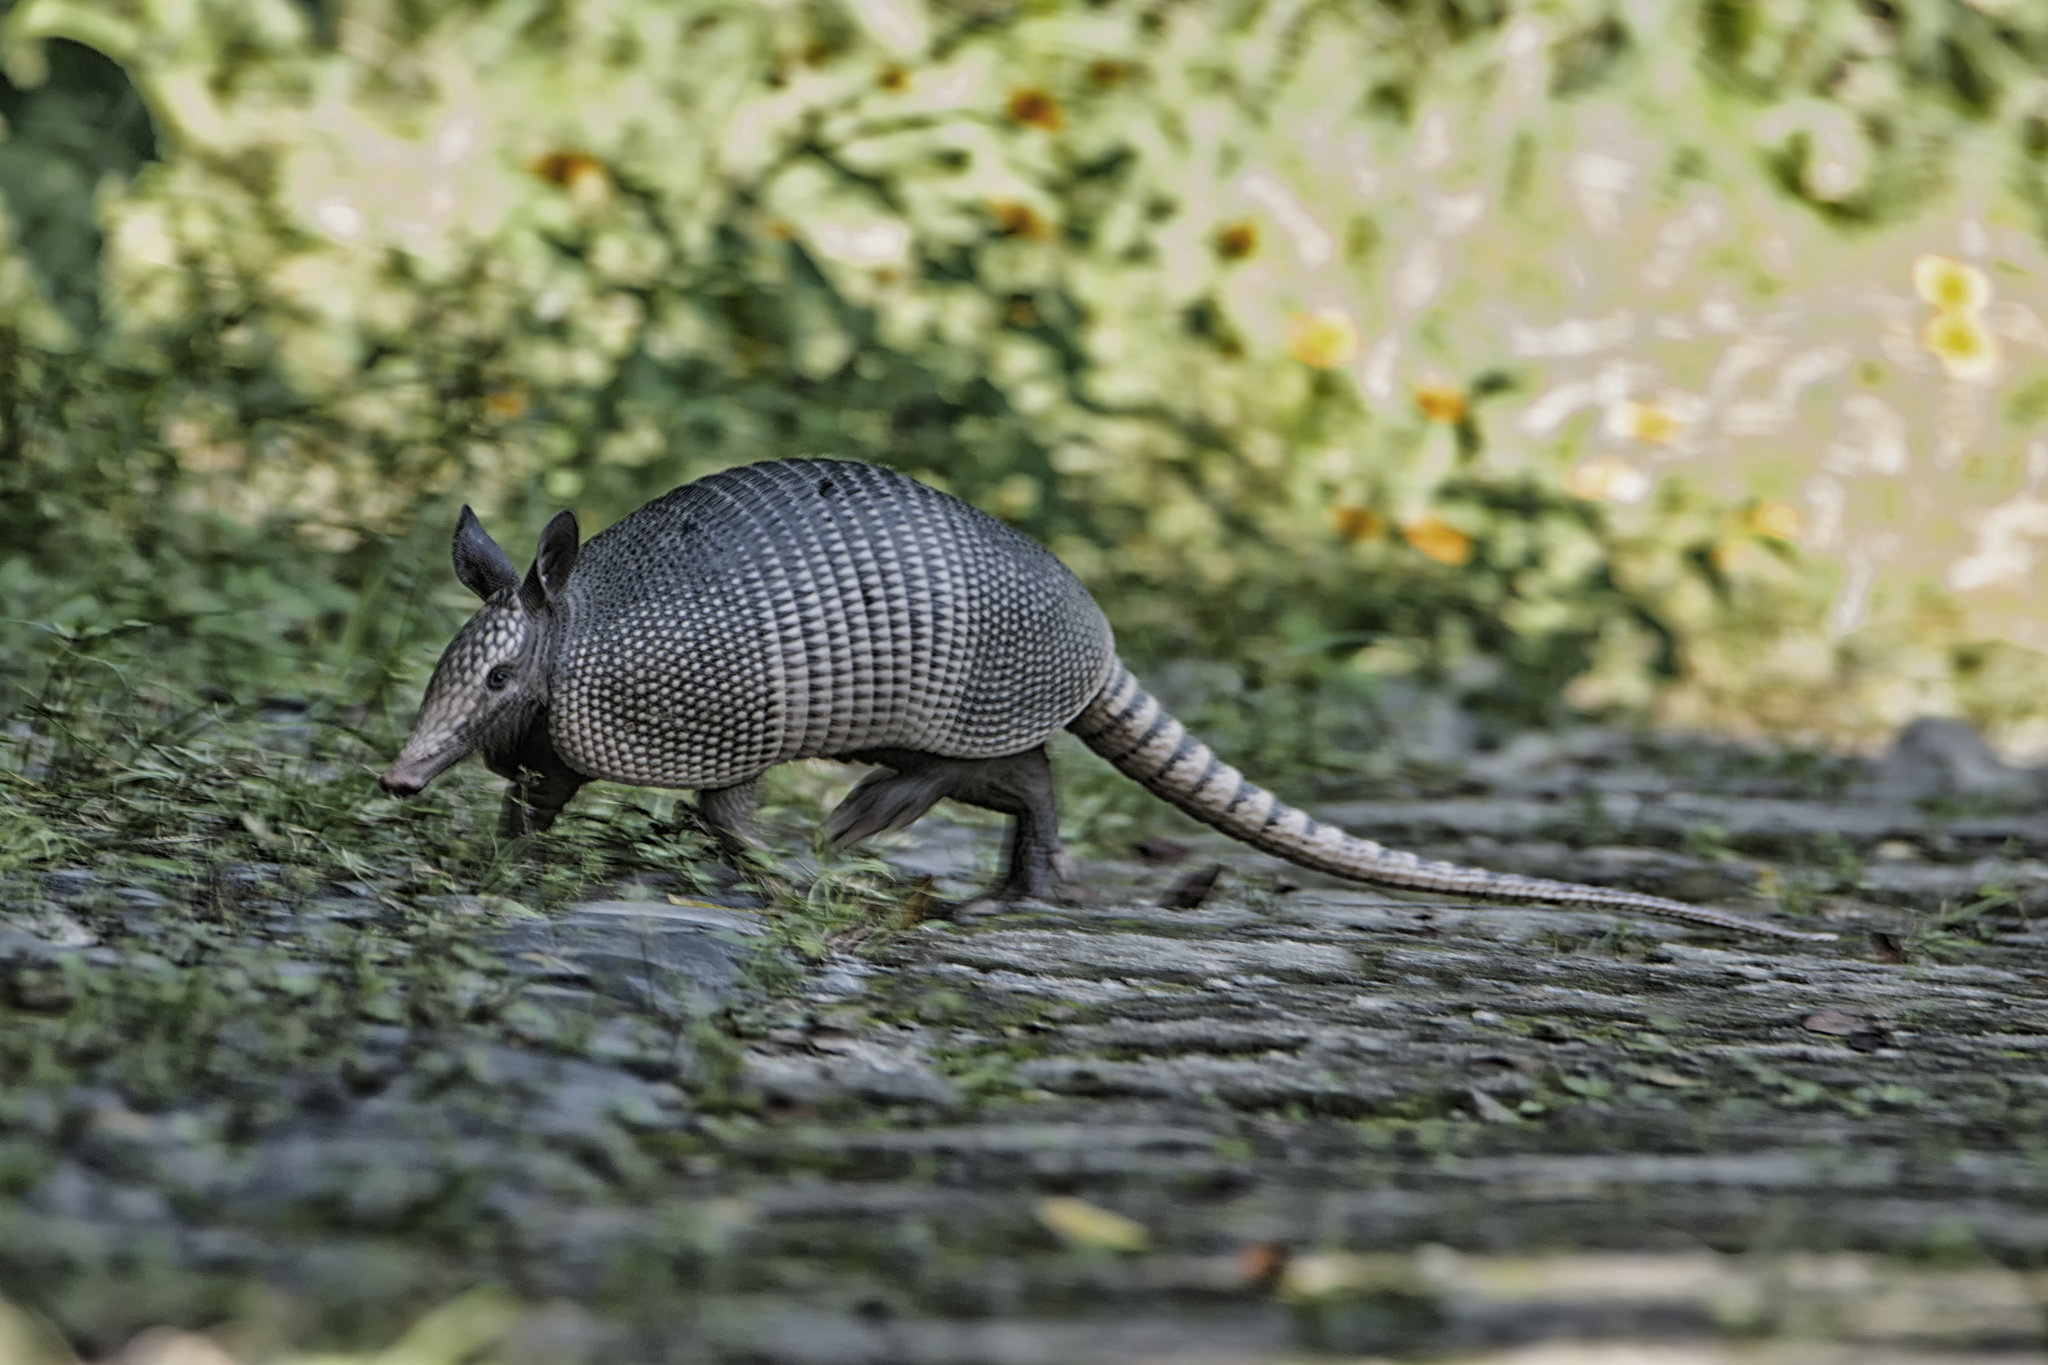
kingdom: Animalia
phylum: Chordata
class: Mammalia
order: Cingulata
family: Dasypodidae
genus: Dasypus
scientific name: Dasypus novemcinctus
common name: Nine-banded armadillo
